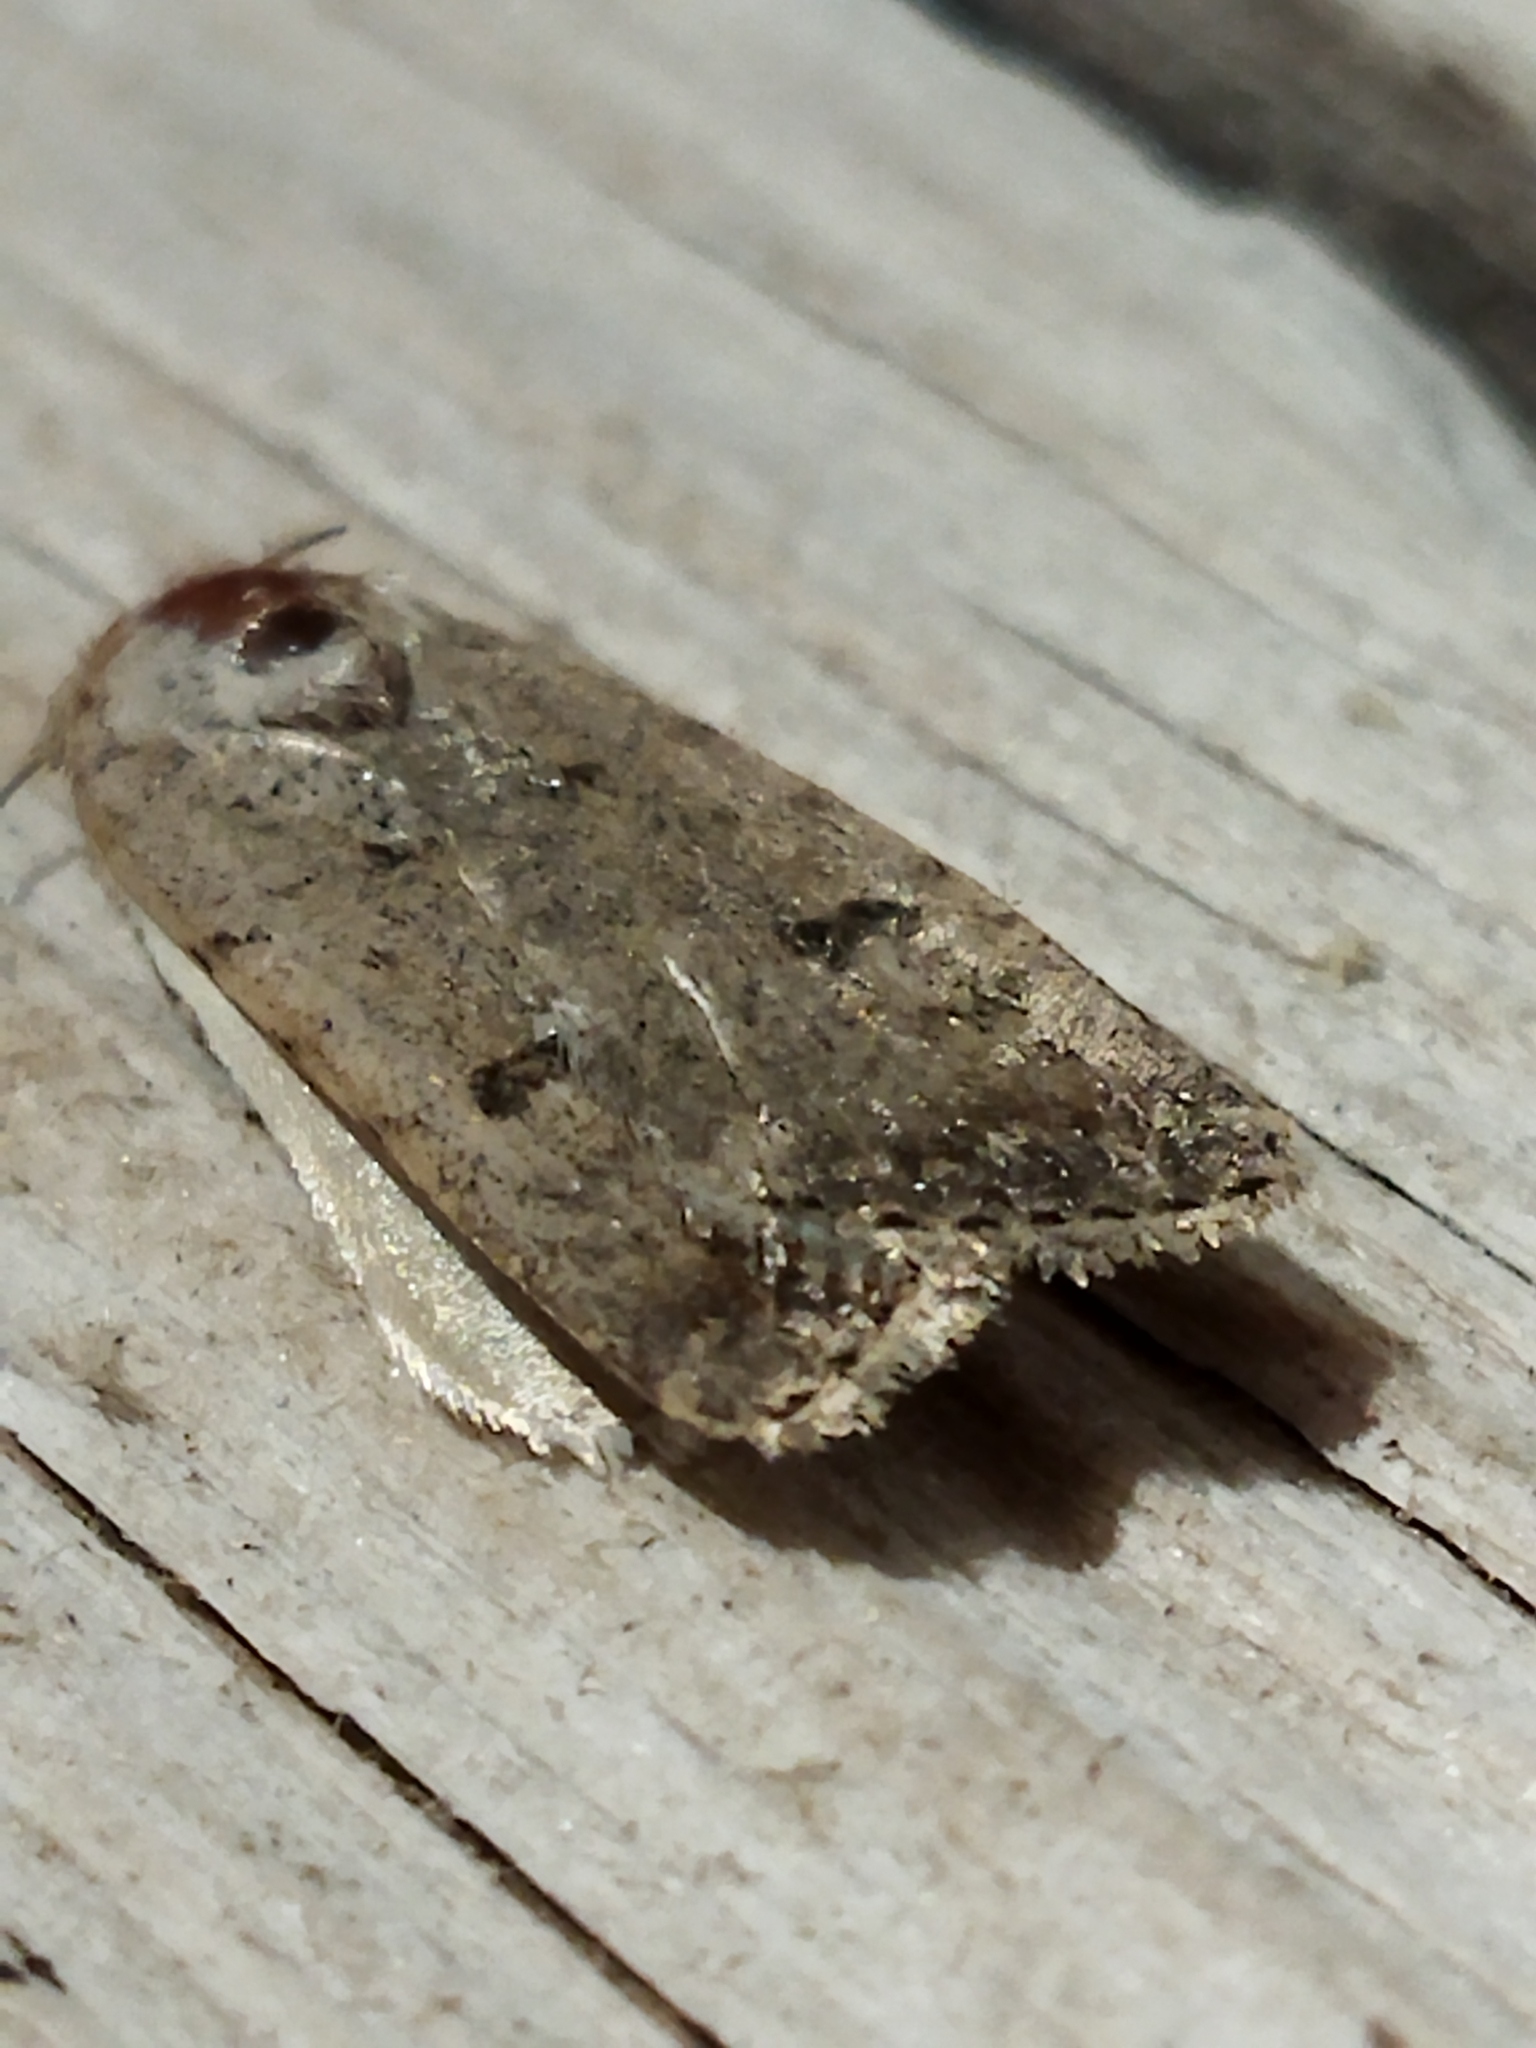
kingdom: Animalia
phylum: Arthropoda
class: Insecta
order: Lepidoptera
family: Noctuidae
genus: Caradrina
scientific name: Caradrina clavipalpis
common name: Pale mottled willow
